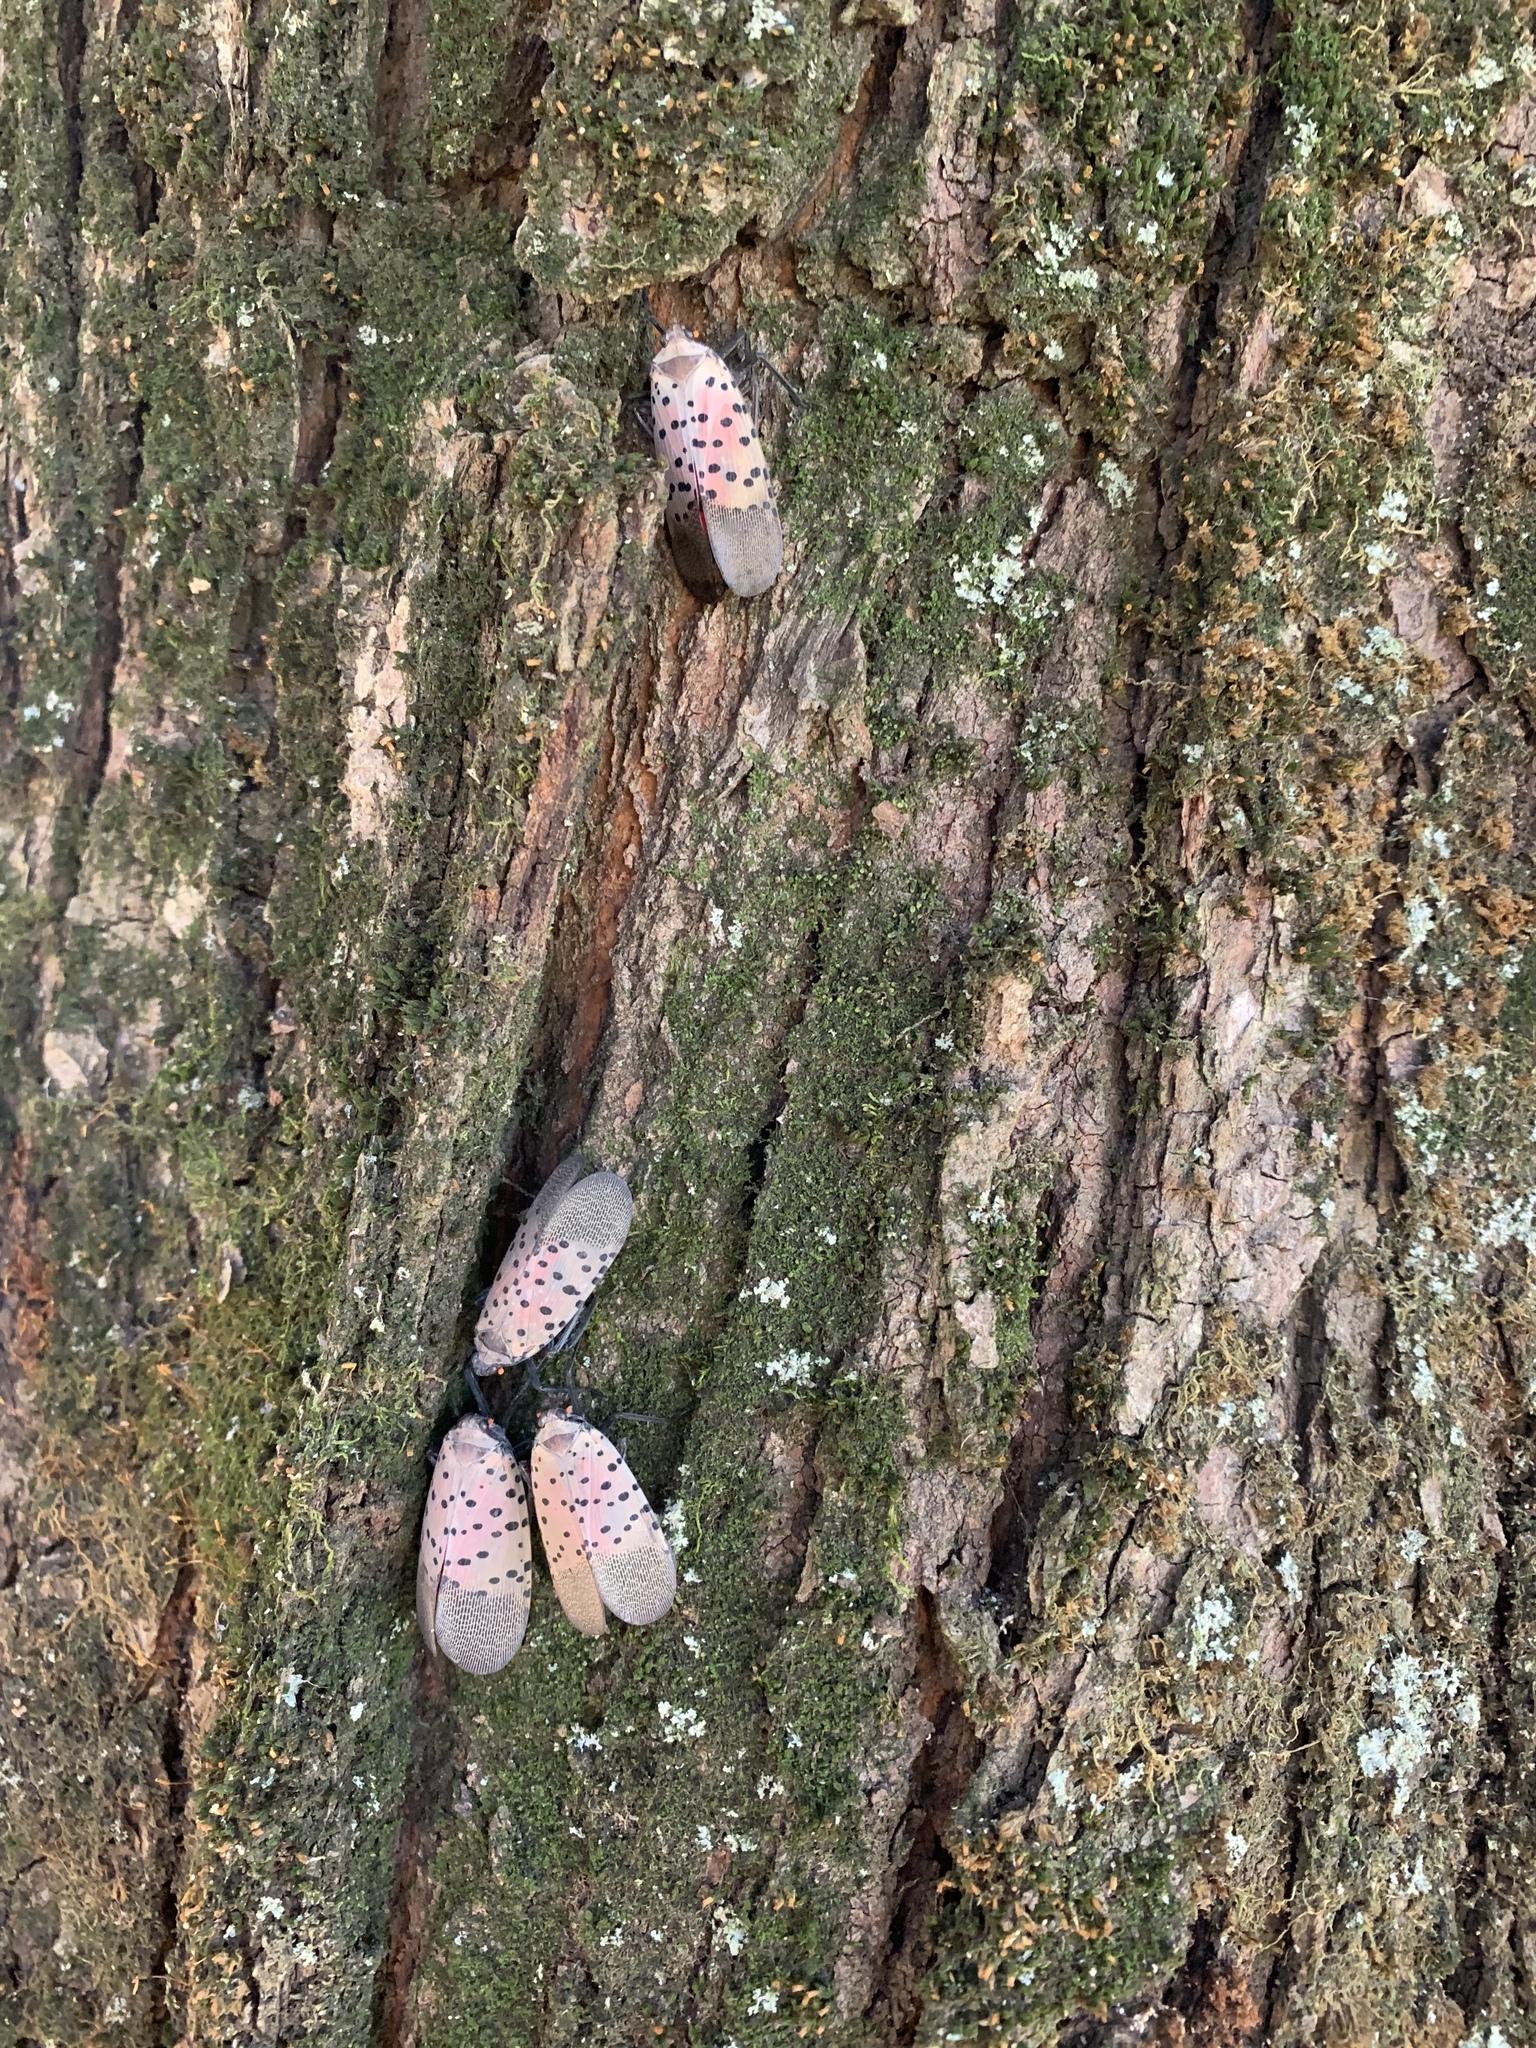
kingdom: Animalia
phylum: Arthropoda
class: Insecta
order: Hemiptera
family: Fulgoridae
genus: Lycorma
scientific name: Lycorma delicatula
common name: Spotted lanternfly
